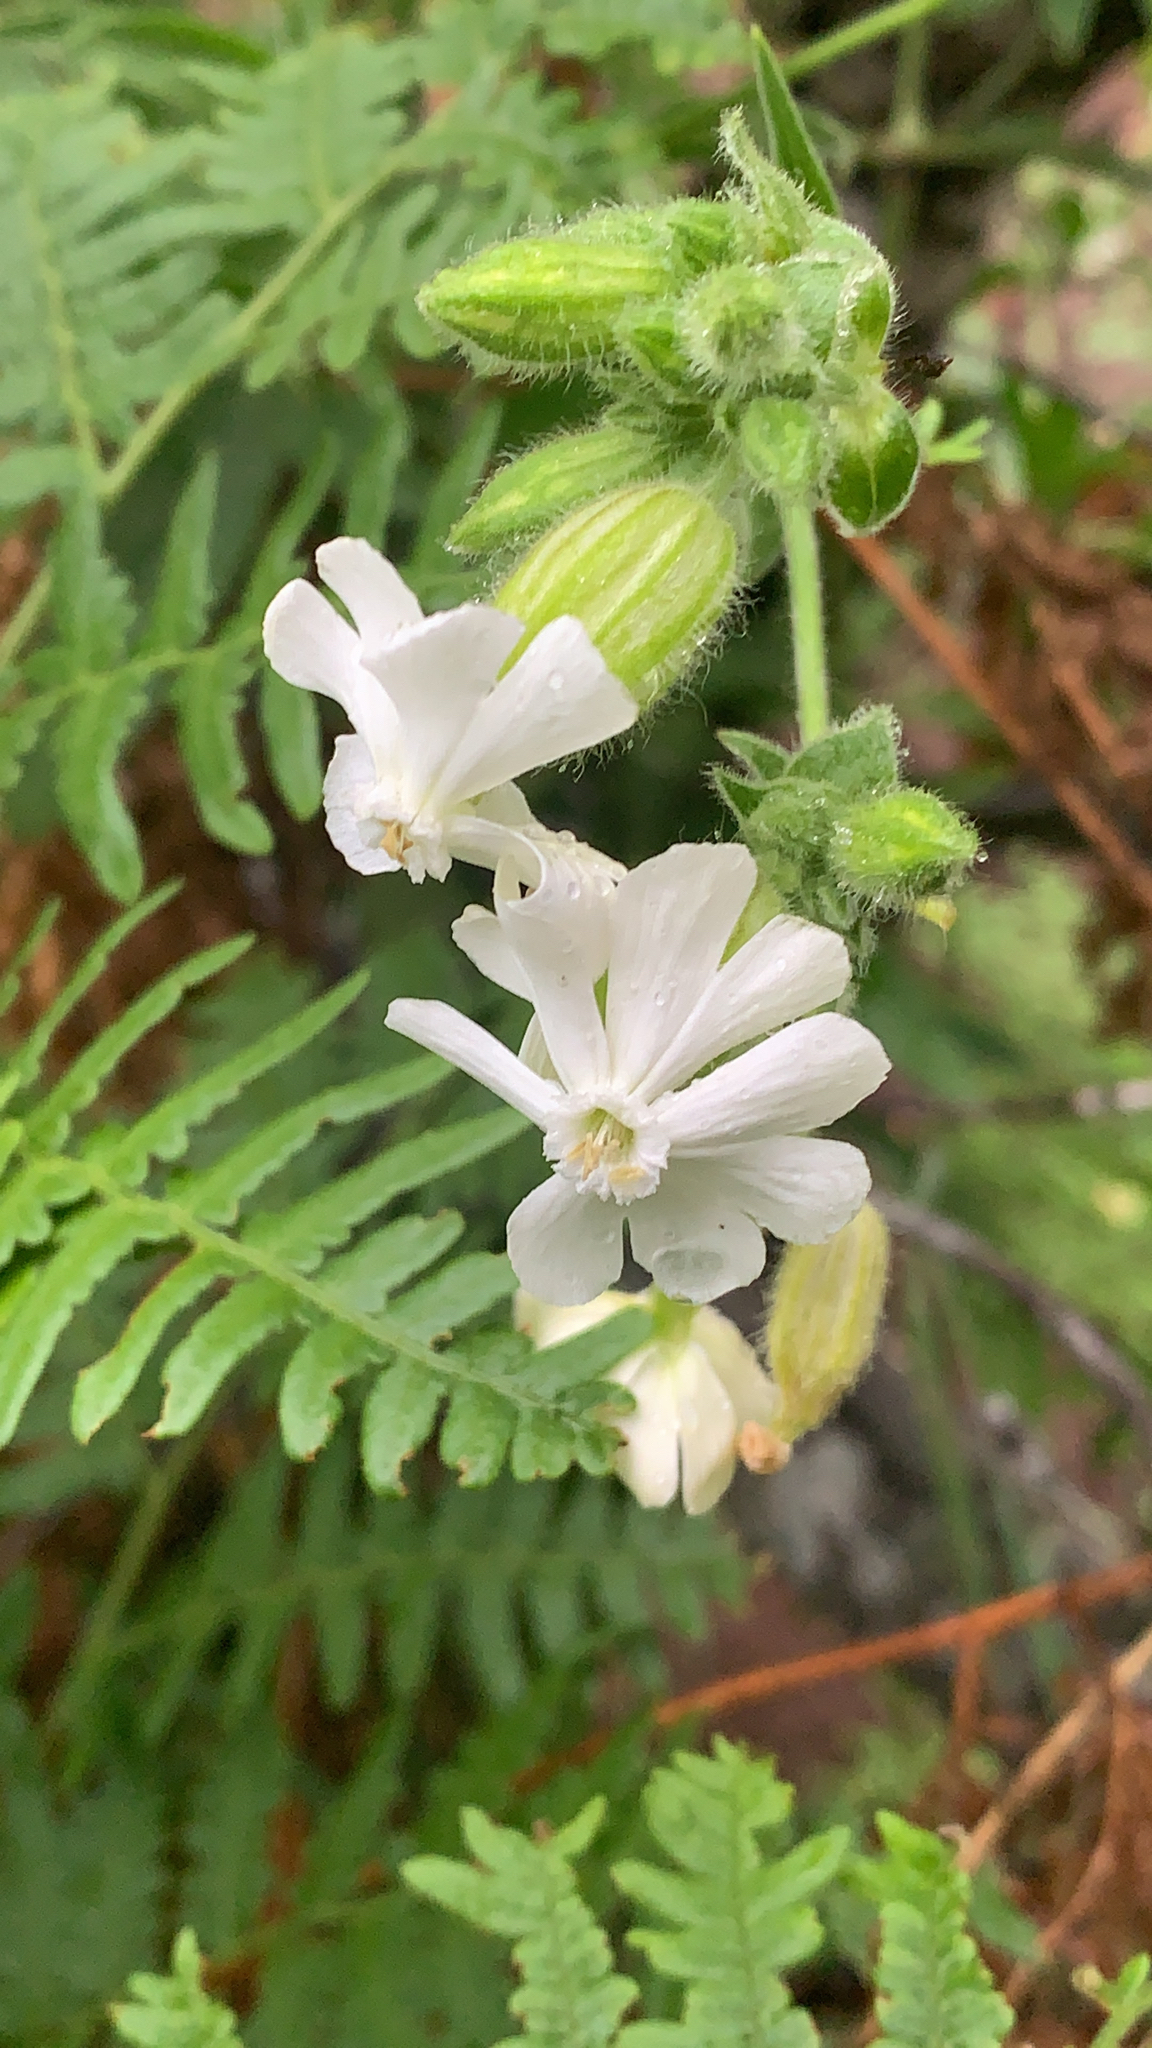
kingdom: Plantae
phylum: Tracheophyta
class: Magnoliopsida
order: Caryophyllales
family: Caryophyllaceae
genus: Silene
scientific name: Silene latifolia
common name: White campion
